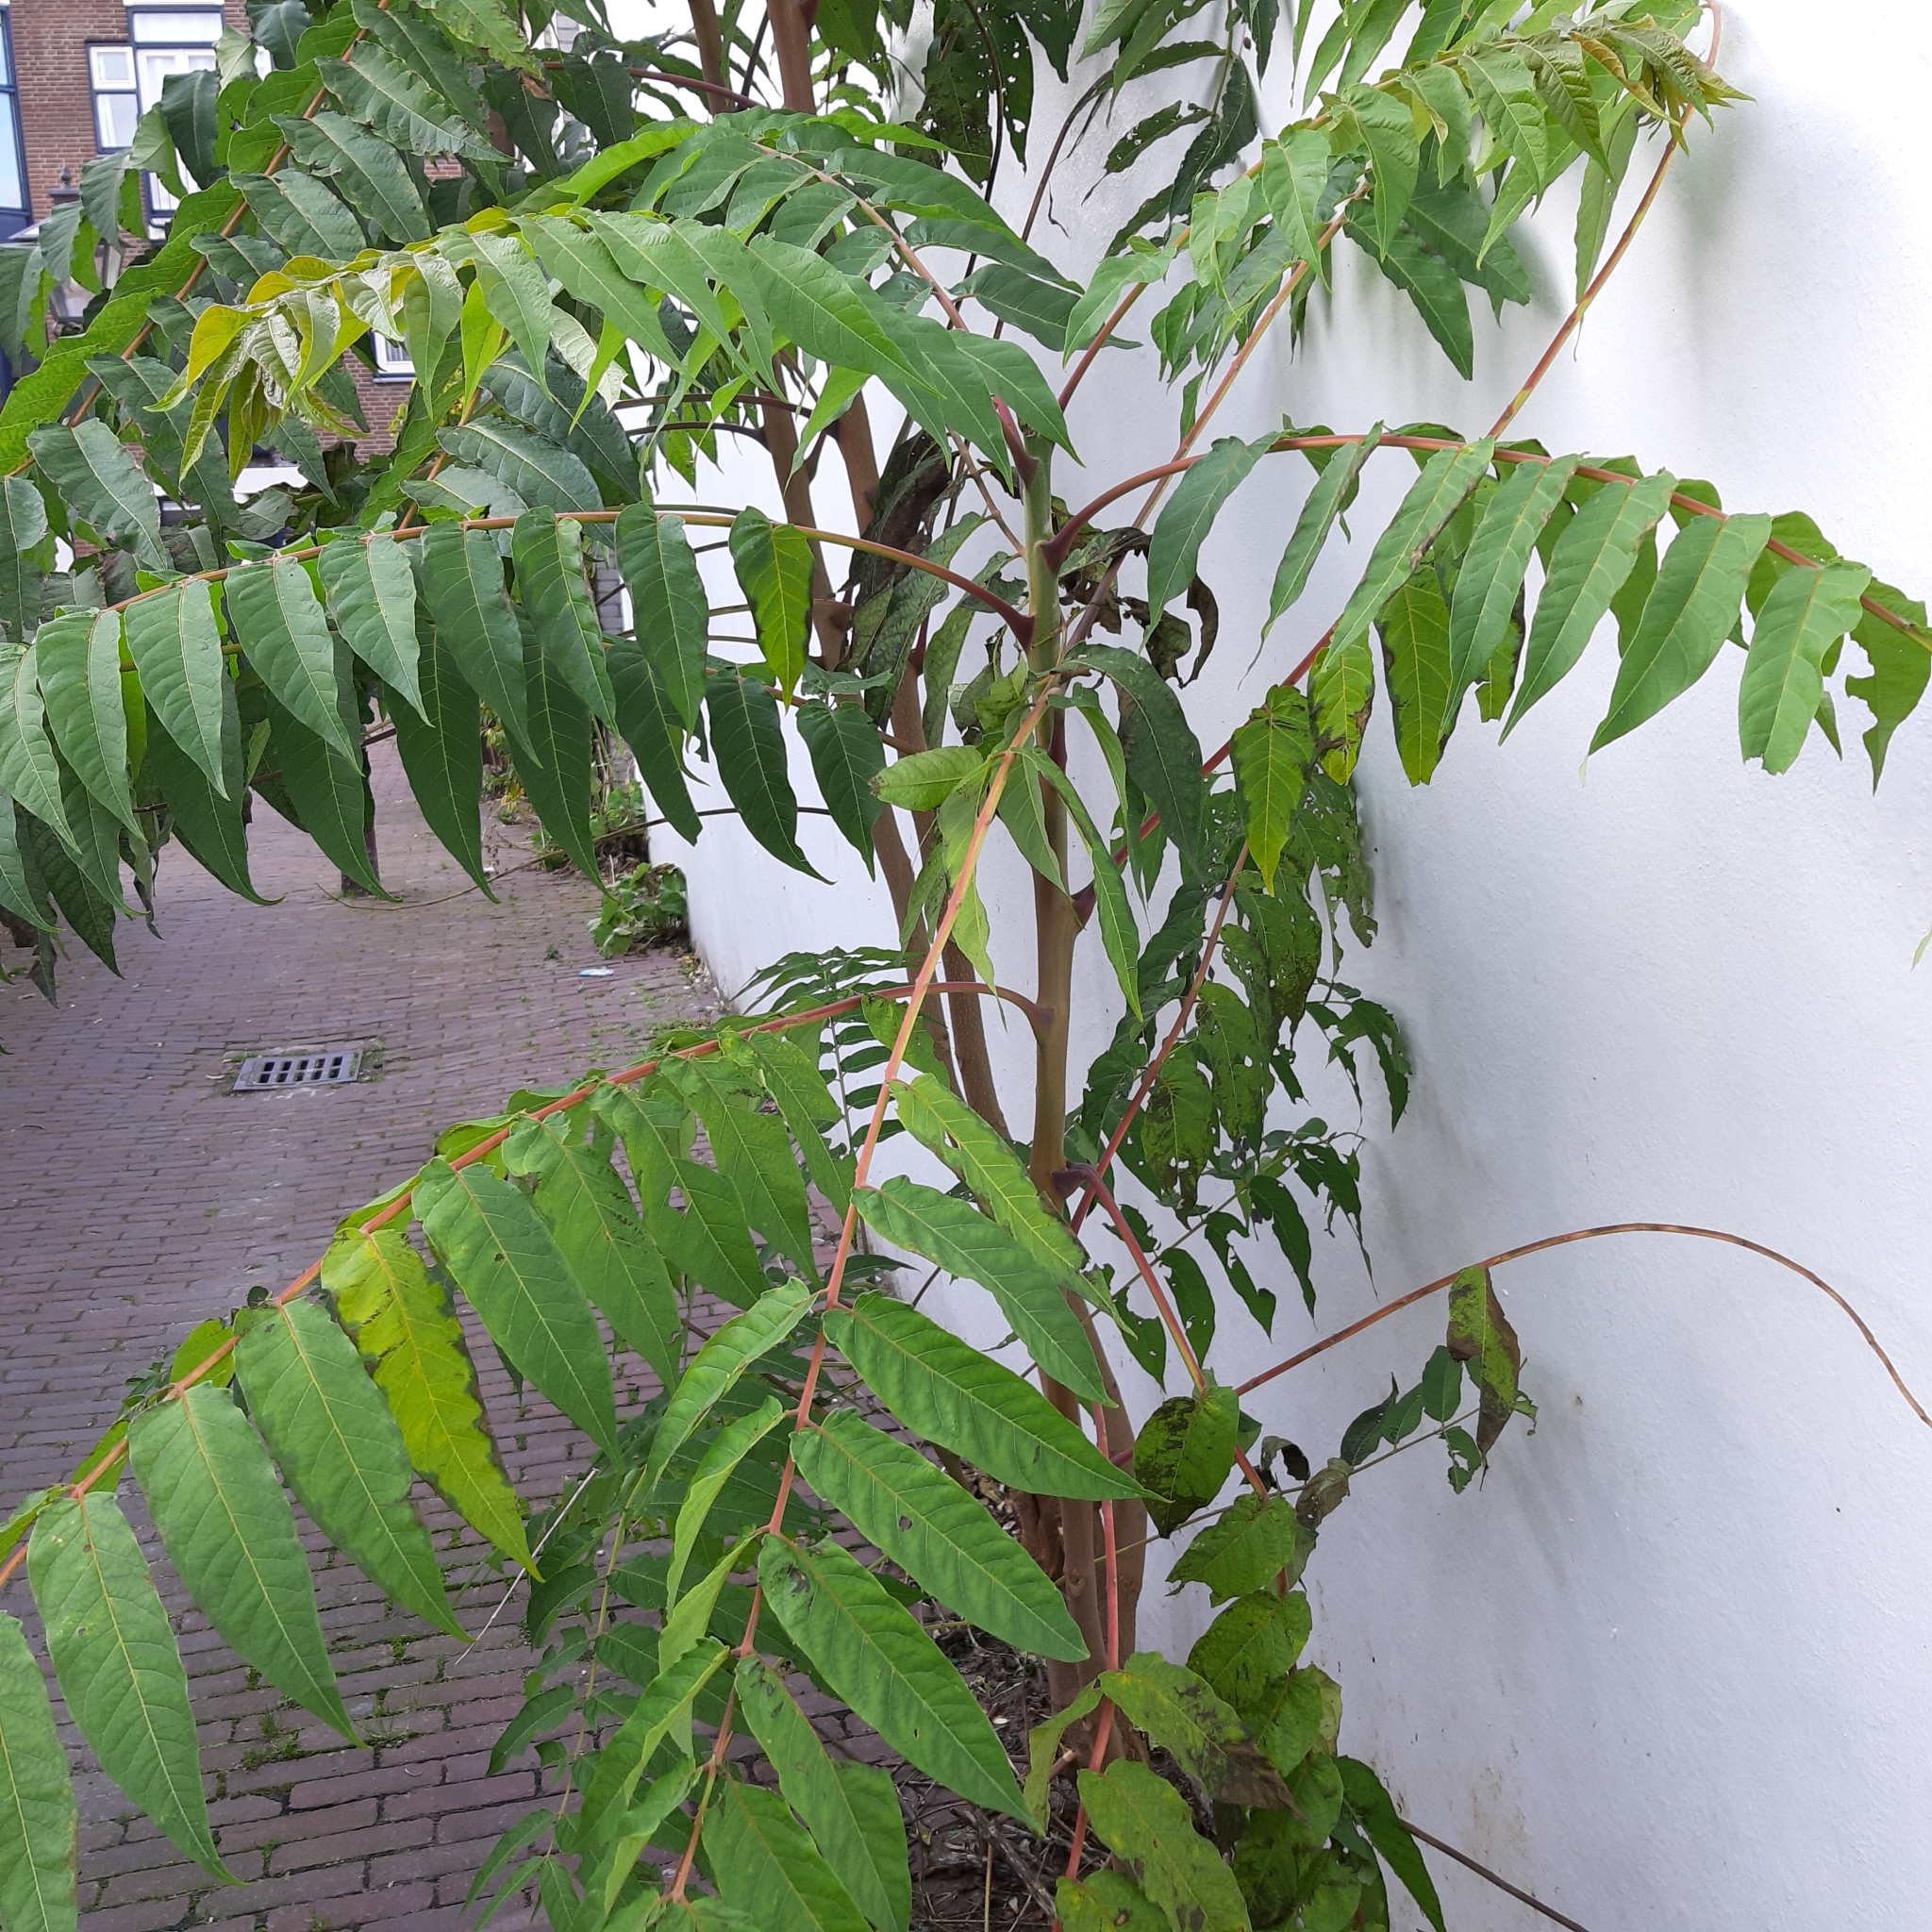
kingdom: Plantae
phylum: Tracheophyta
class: Magnoliopsida
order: Sapindales
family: Simaroubaceae
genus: Ailanthus
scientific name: Ailanthus altissima
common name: Tree-of-heaven
